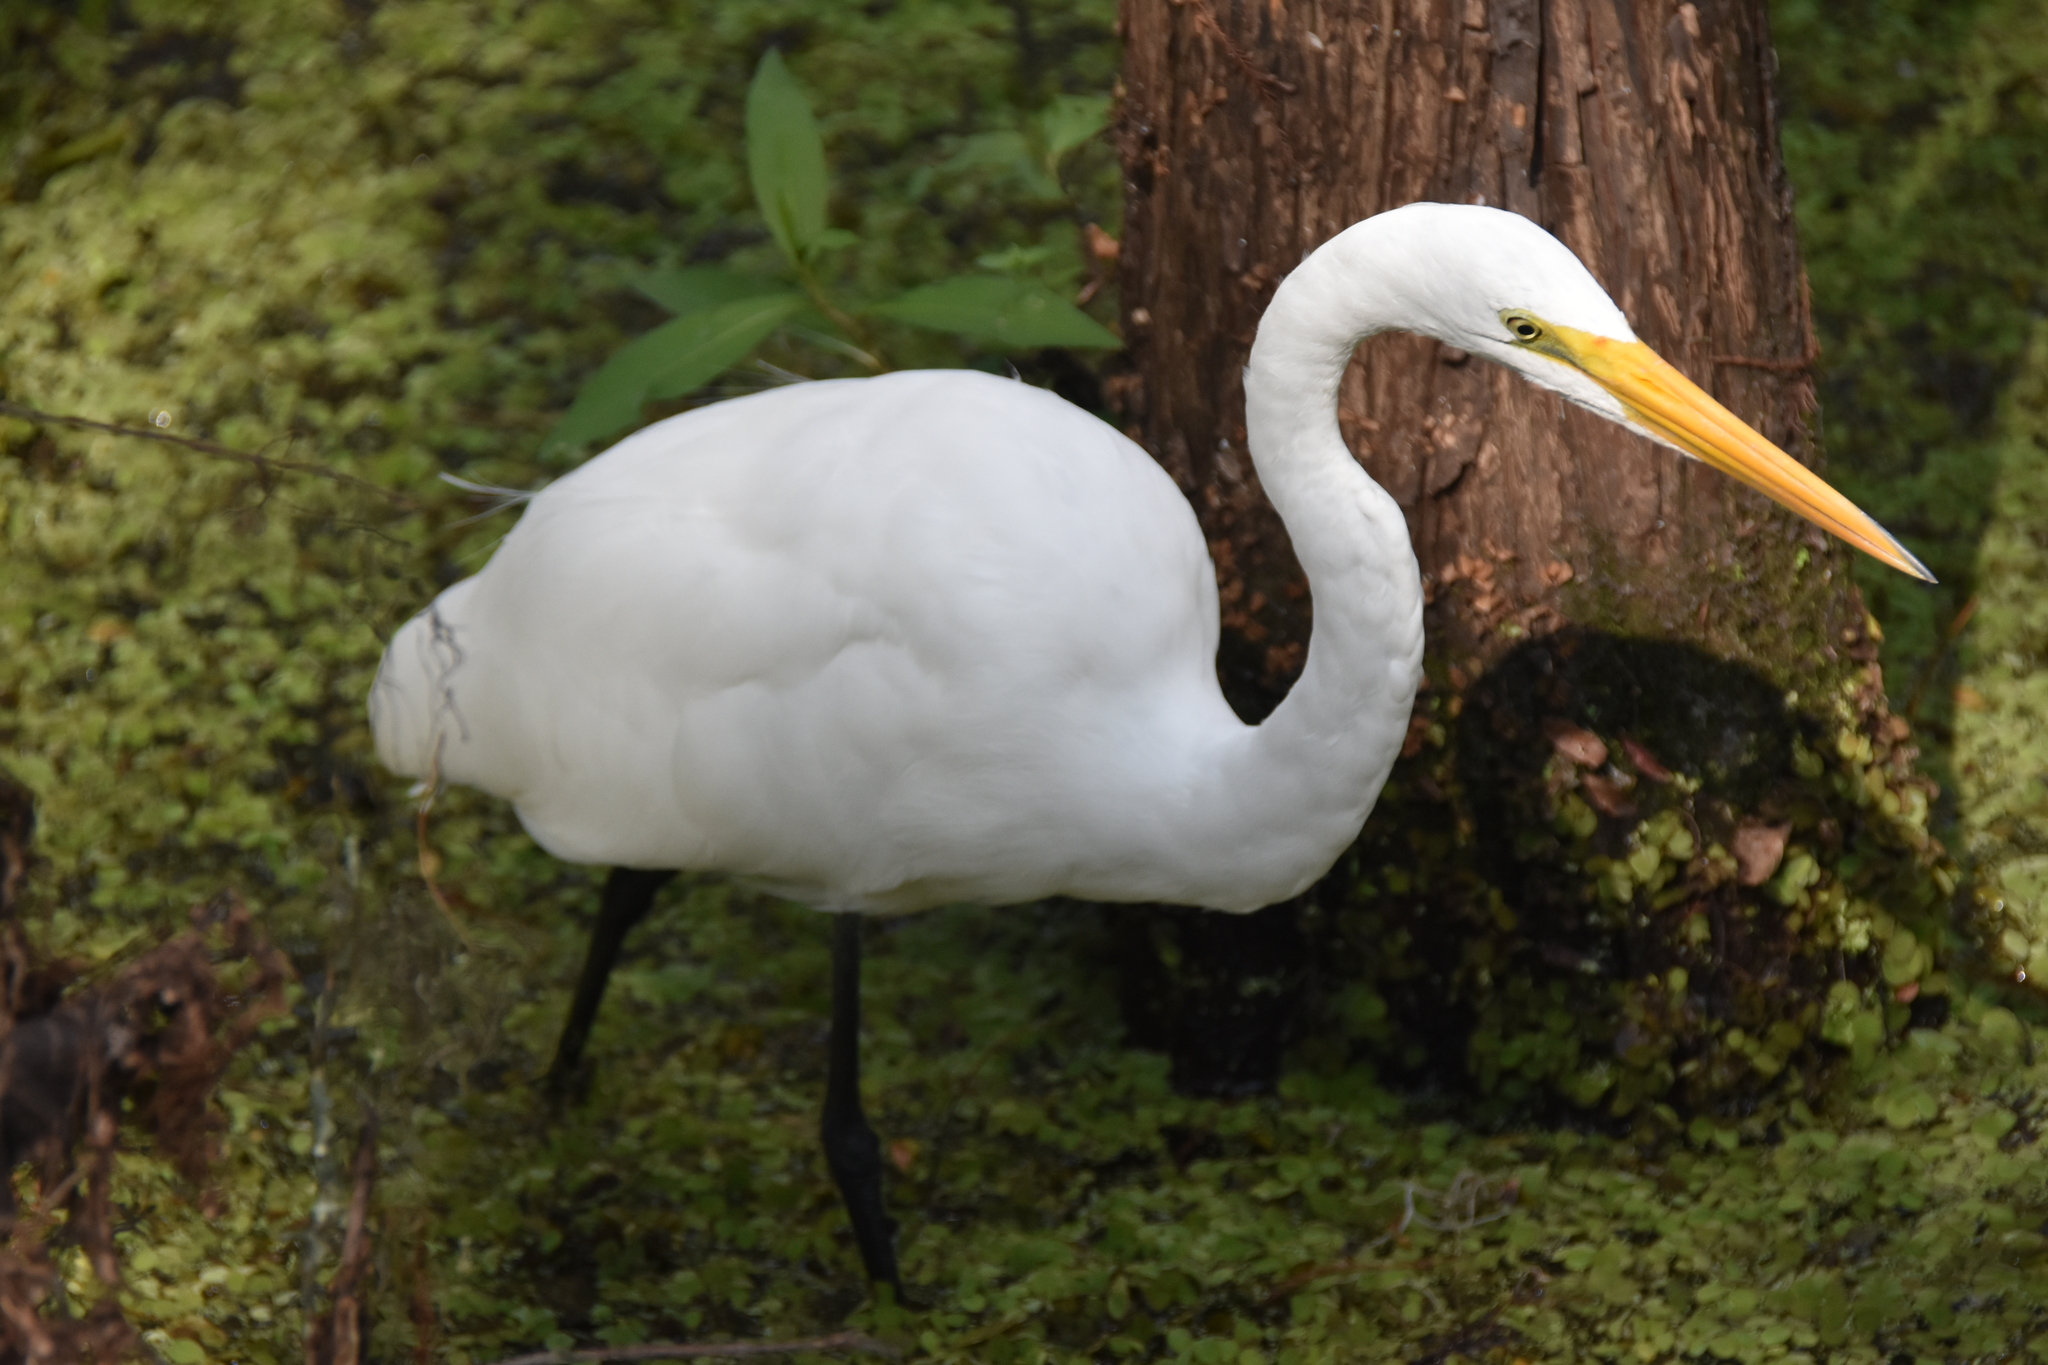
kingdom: Animalia
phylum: Chordata
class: Aves
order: Pelecaniformes
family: Ardeidae
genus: Ardea
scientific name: Ardea alba
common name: Great egret
